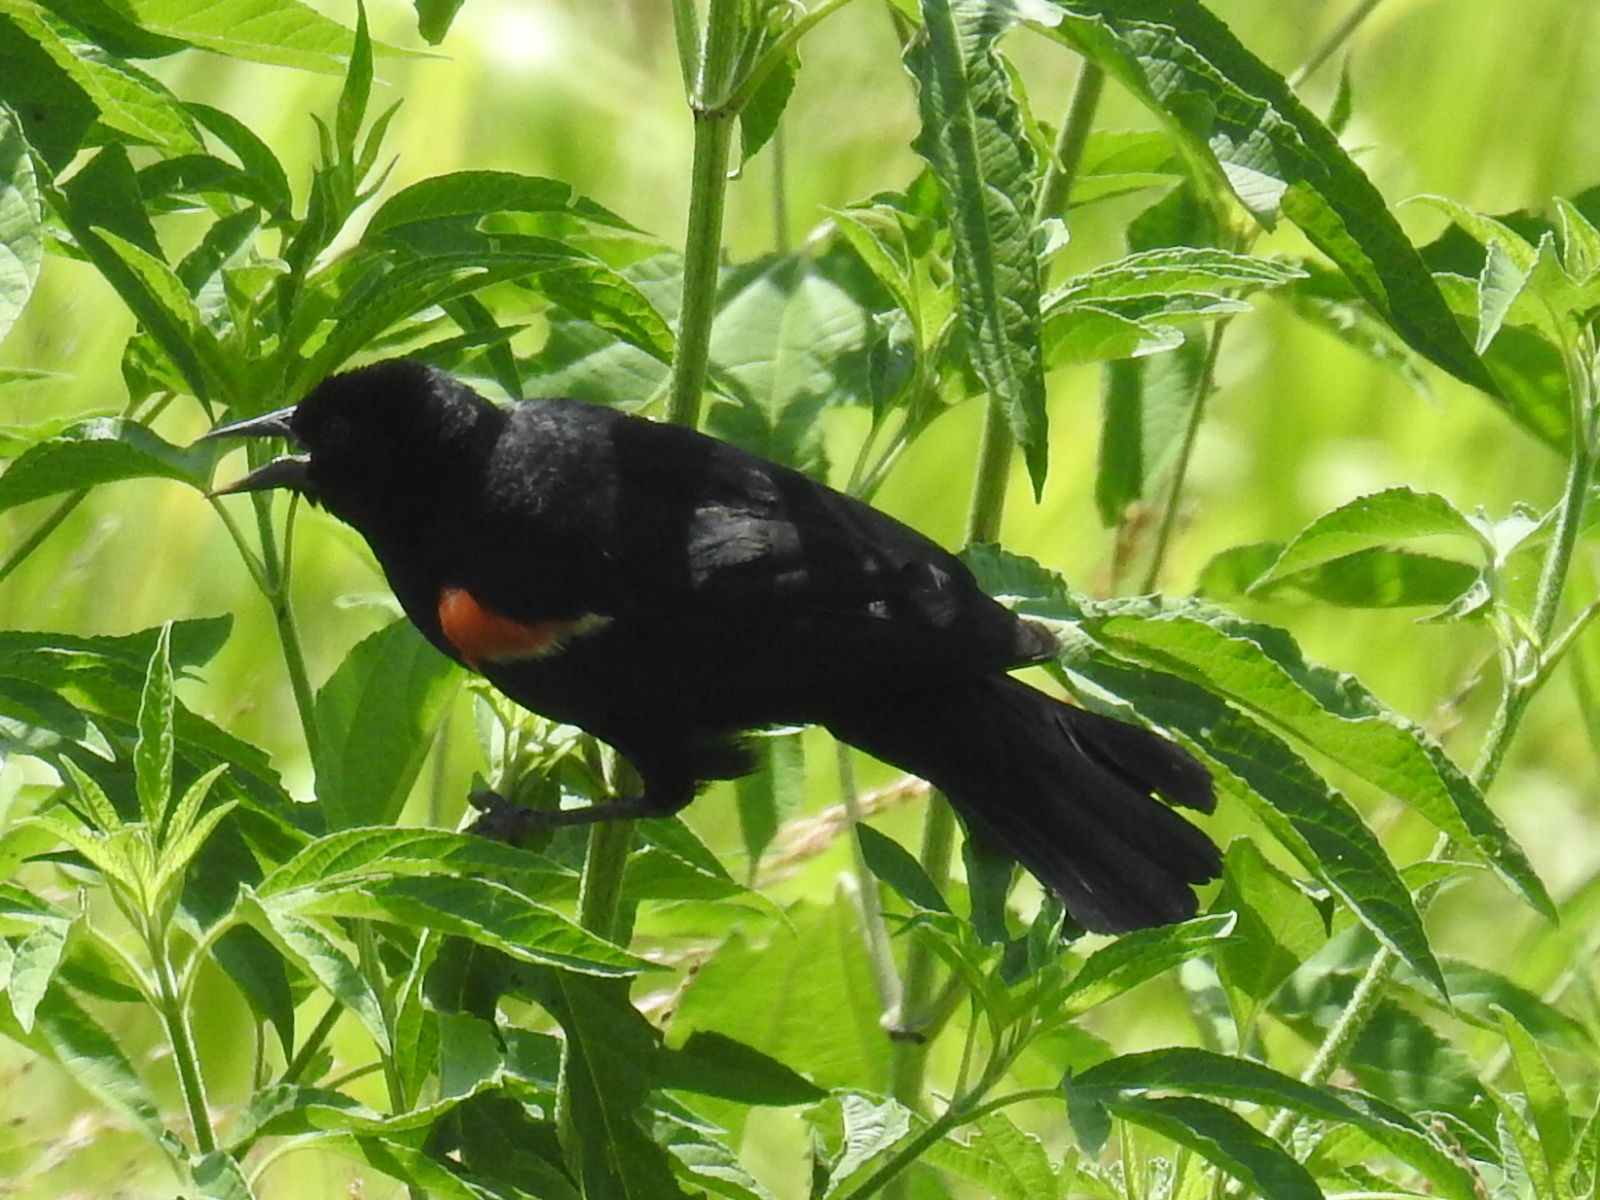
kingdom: Animalia
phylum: Chordata
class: Aves
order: Passeriformes
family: Icteridae
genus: Agelaius
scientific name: Agelaius phoeniceus
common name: Red-winged blackbird
